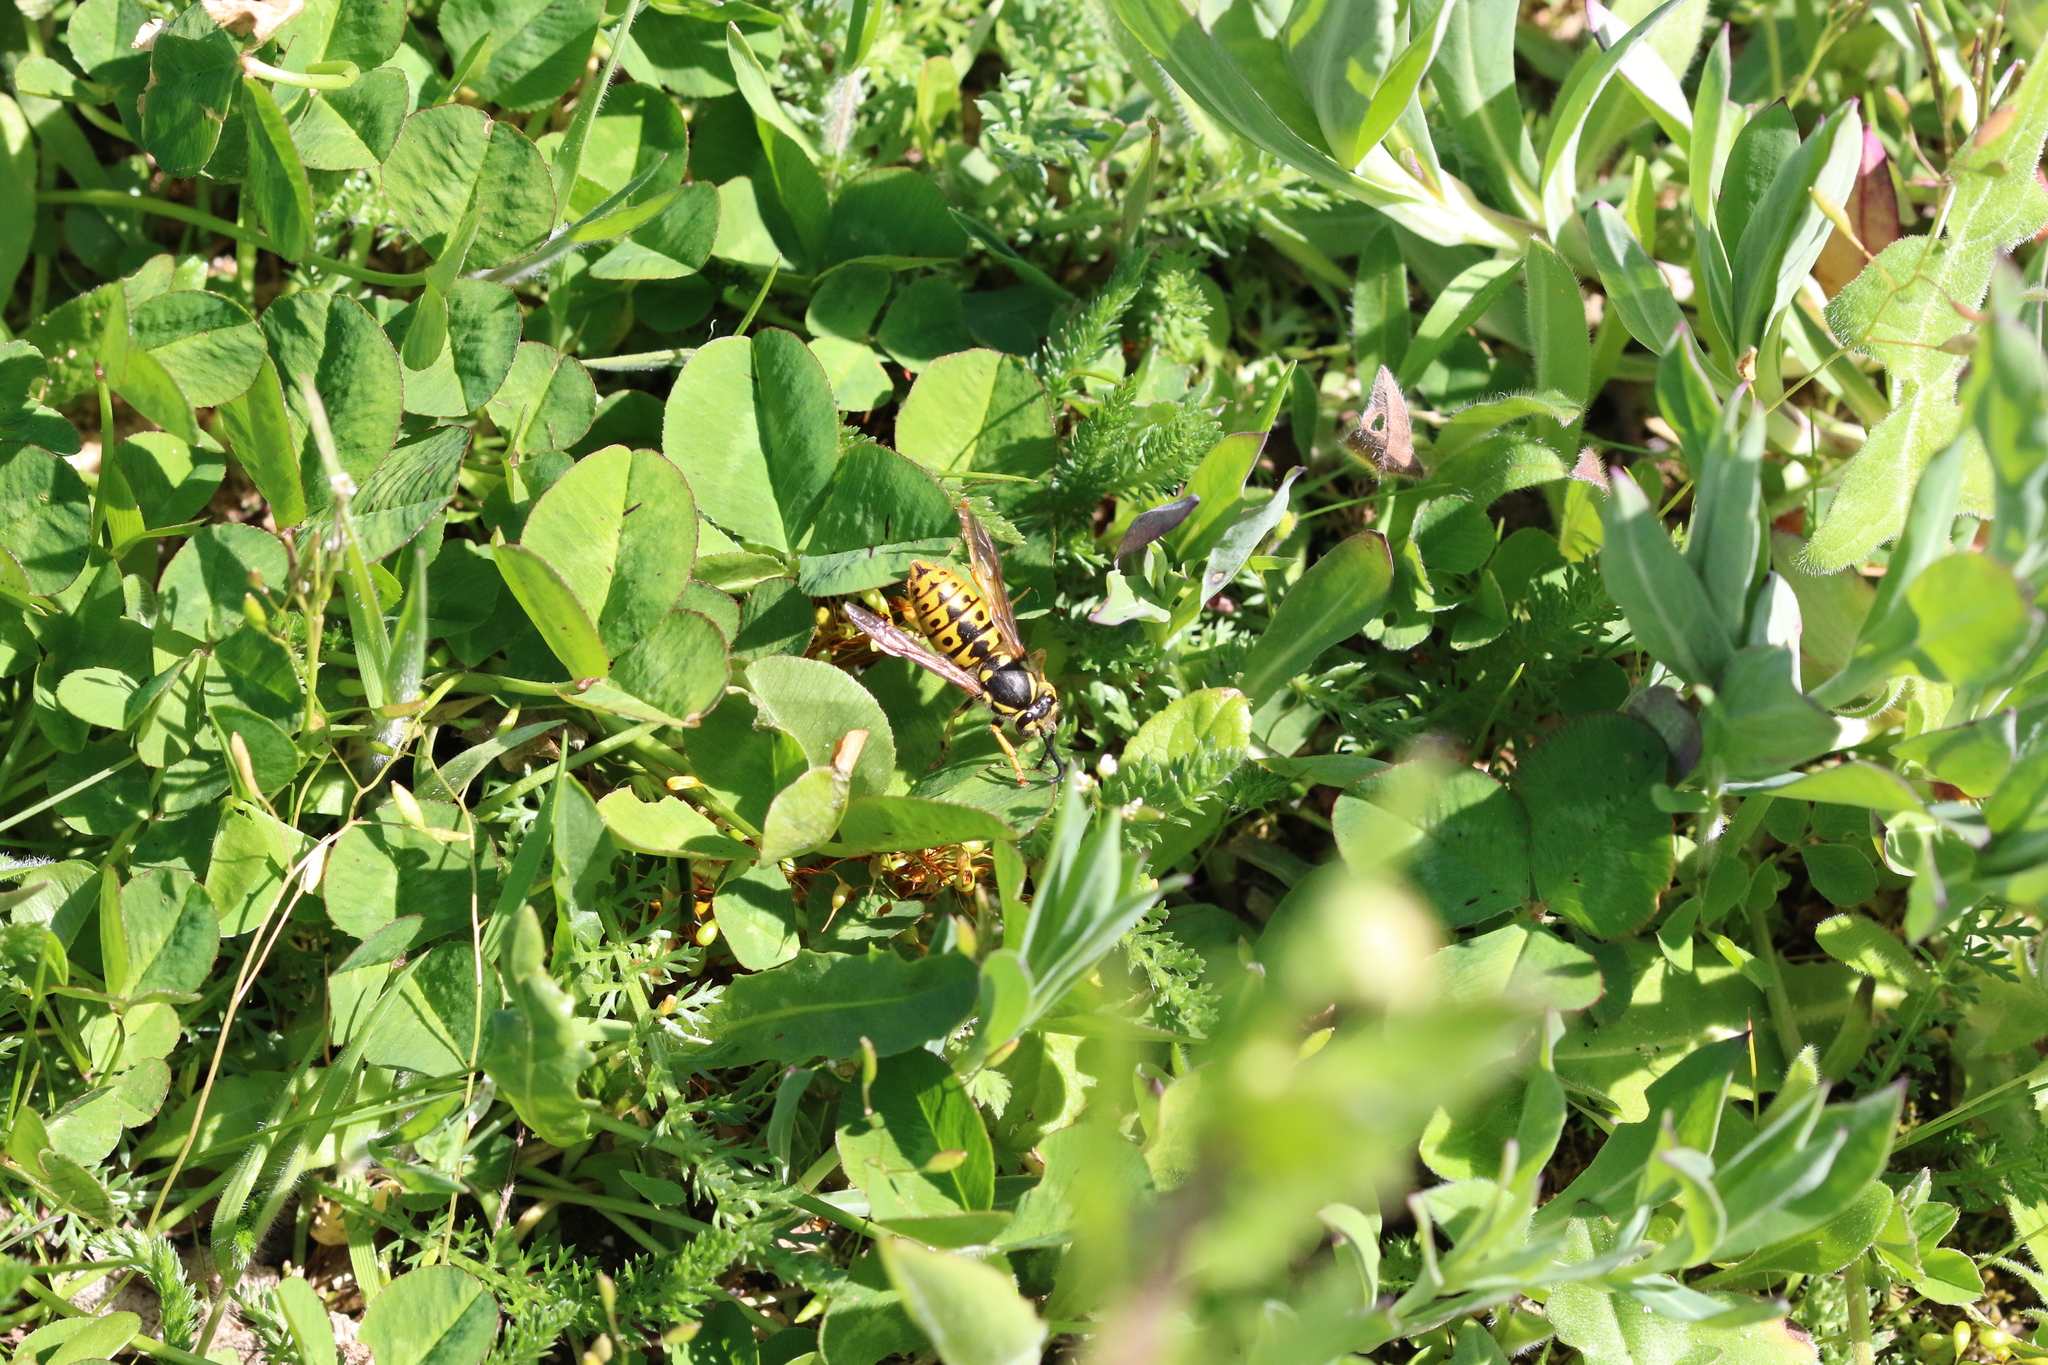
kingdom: Animalia
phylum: Arthropoda
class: Insecta
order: Hymenoptera
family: Vespidae
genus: Vespula
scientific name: Vespula germanica
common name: German wasp
